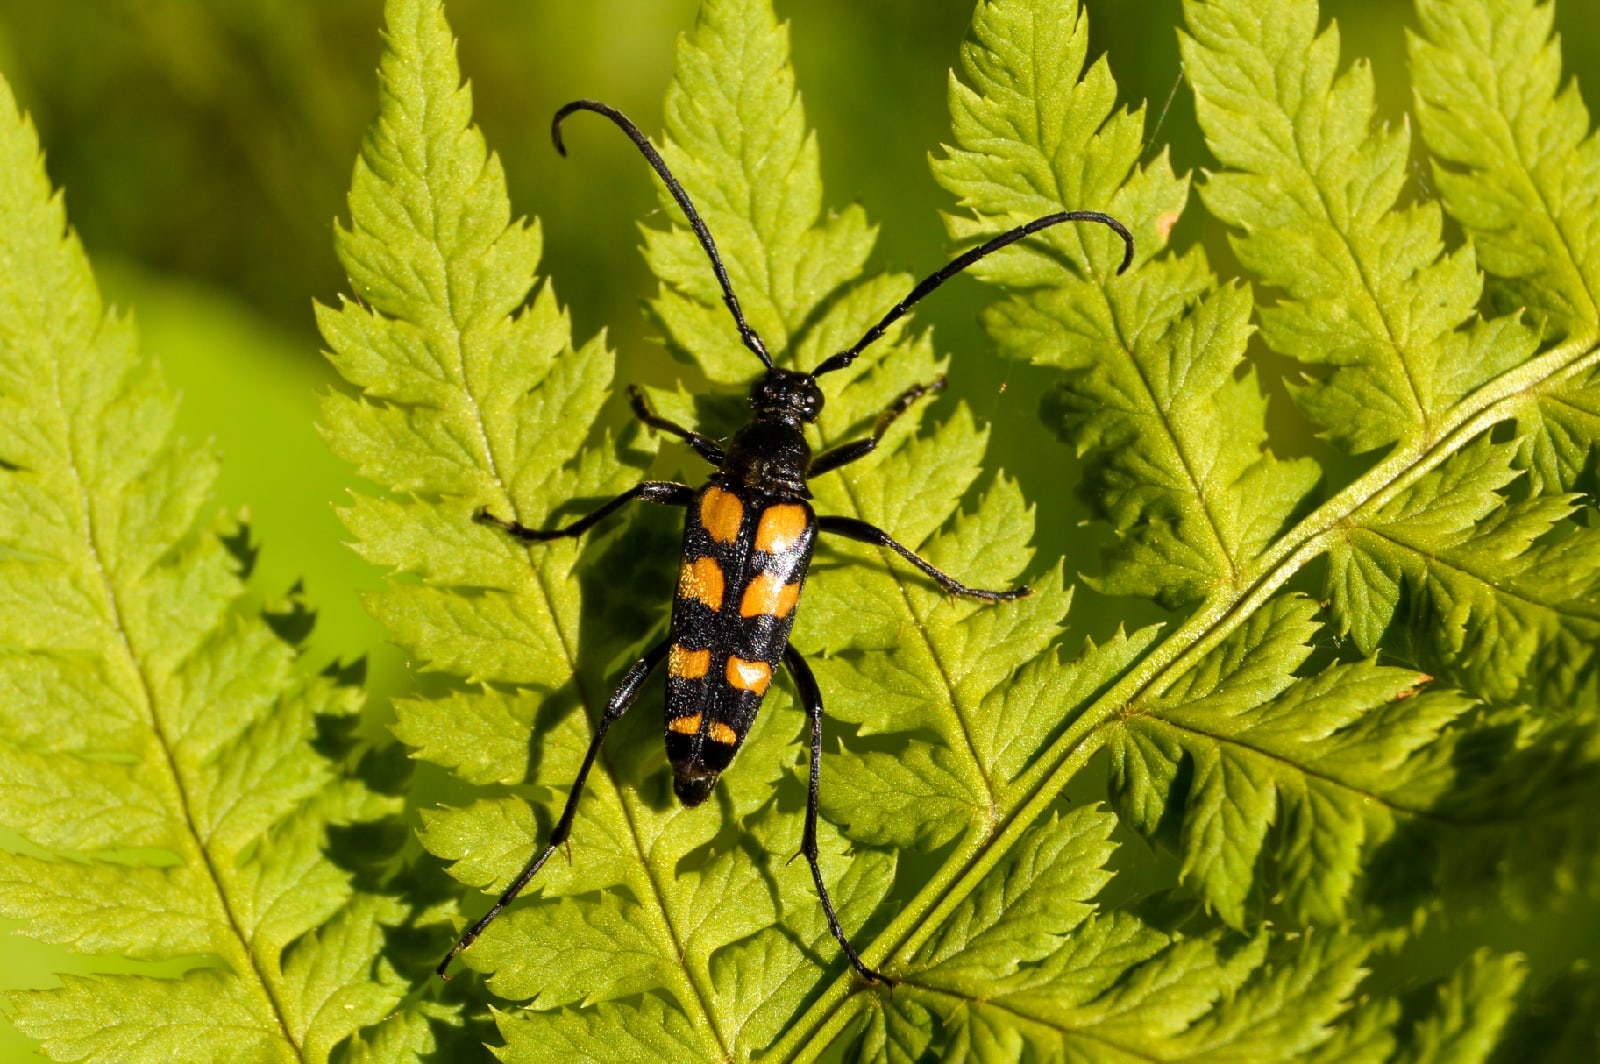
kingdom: Animalia
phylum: Arthropoda
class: Insecta
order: Coleoptera
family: Cerambycidae
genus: Leptura
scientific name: Leptura quadrifasciata
